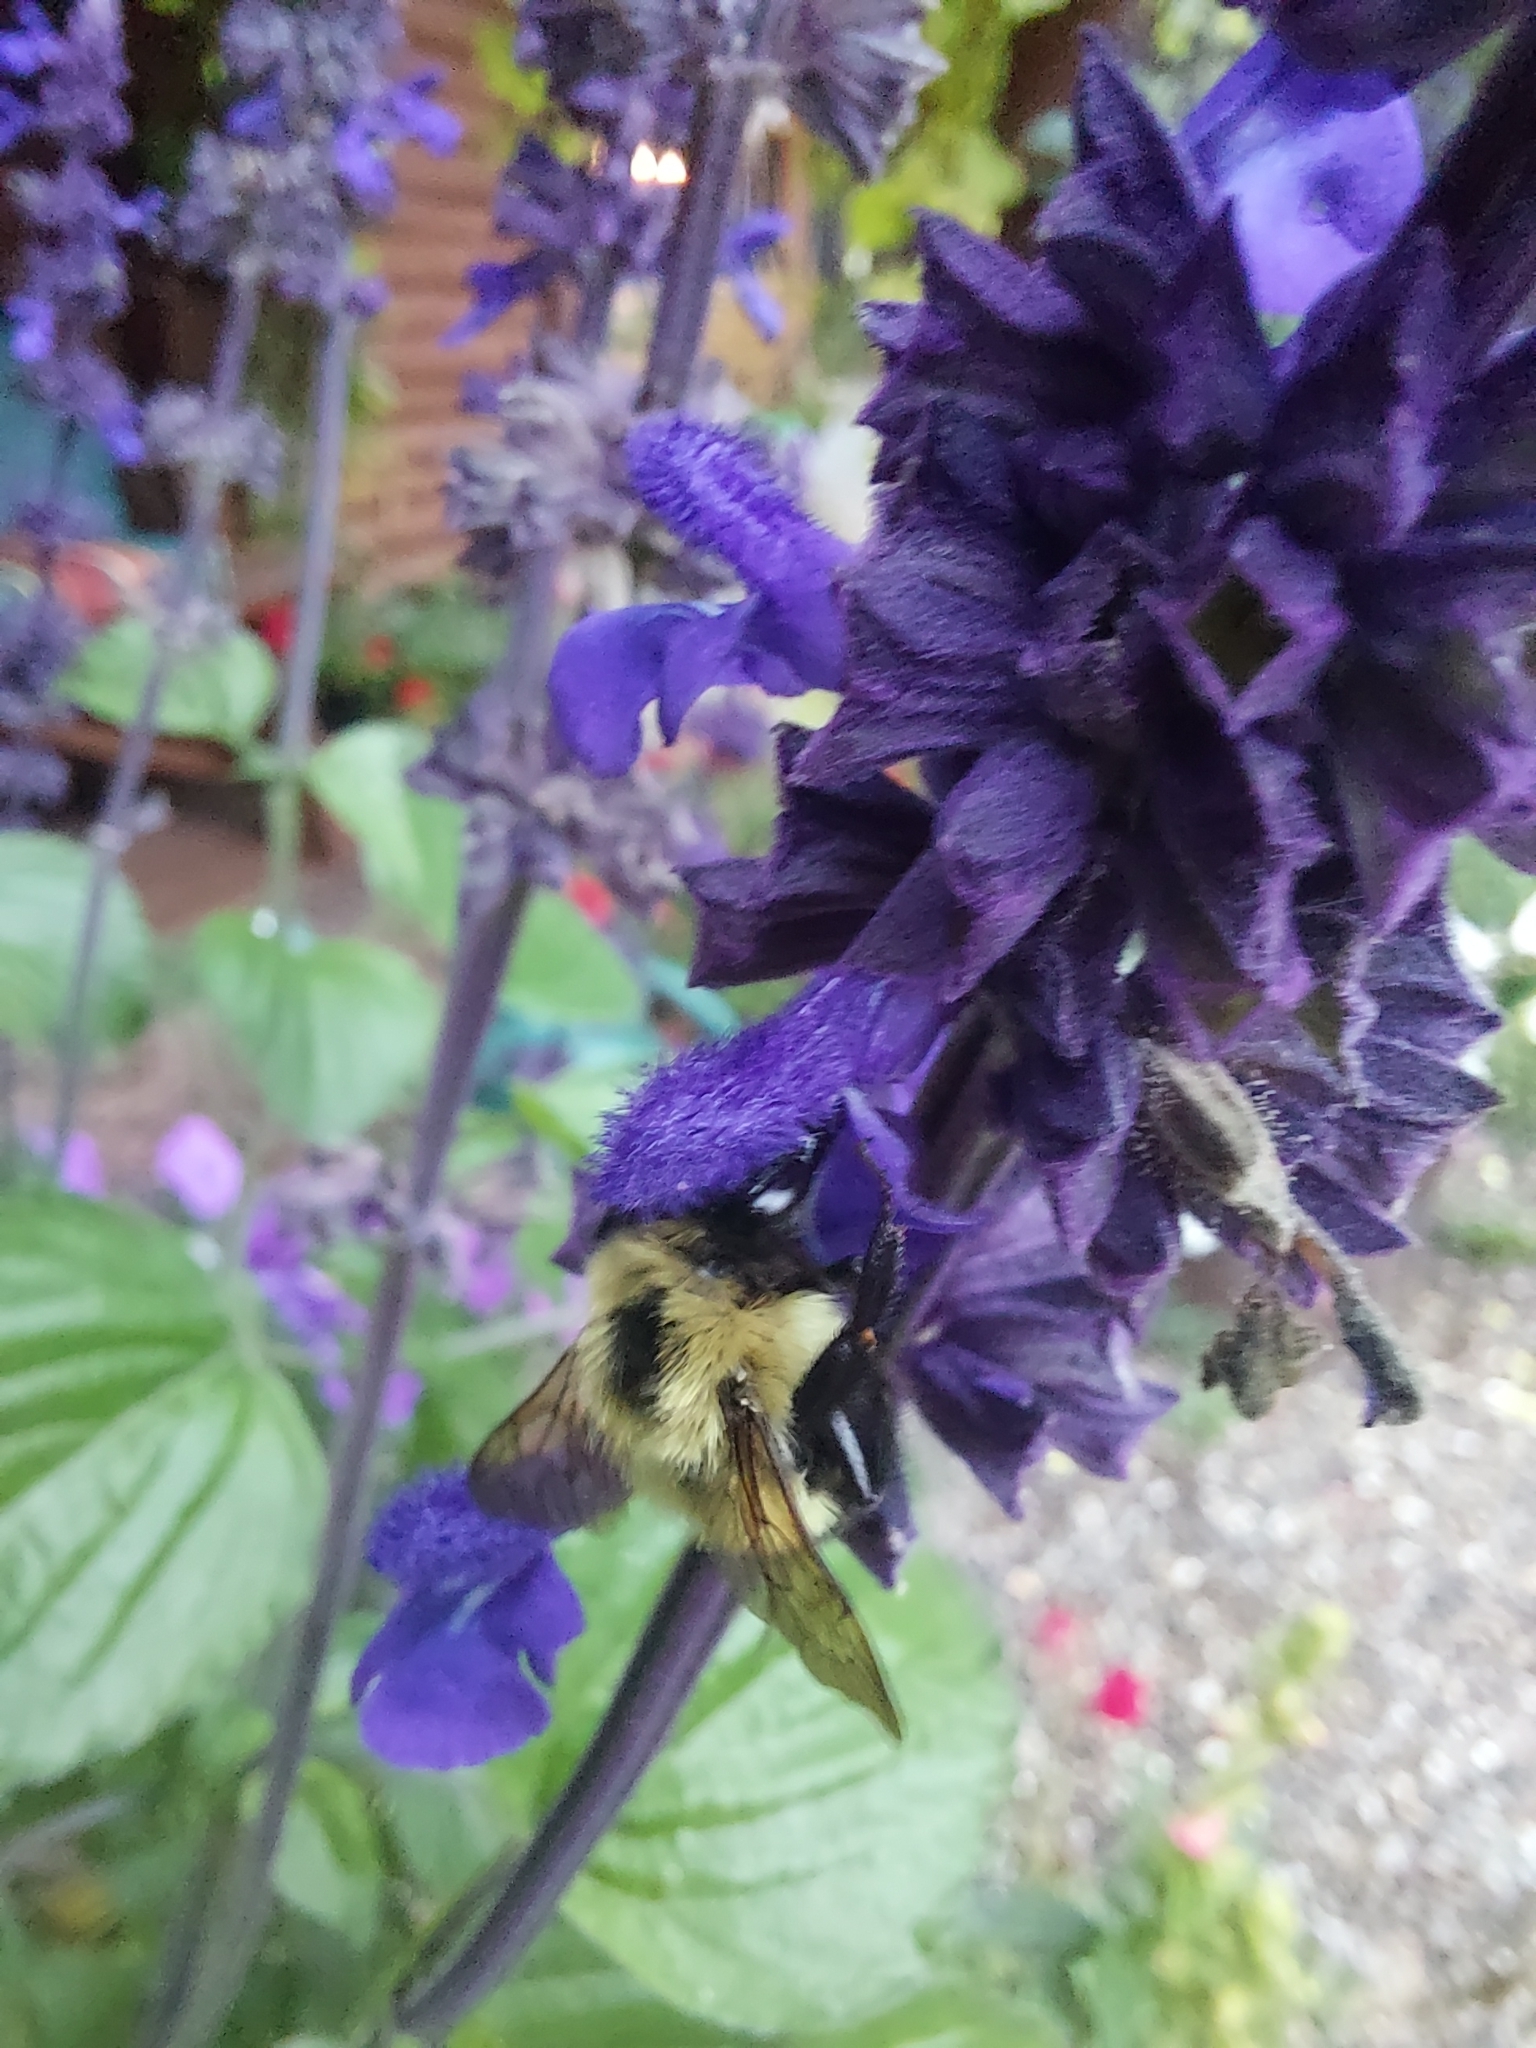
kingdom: Animalia
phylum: Arthropoda
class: Insecta
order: Hymenoptera
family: Apidae
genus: Pyrobombus
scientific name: Pyrobombus
